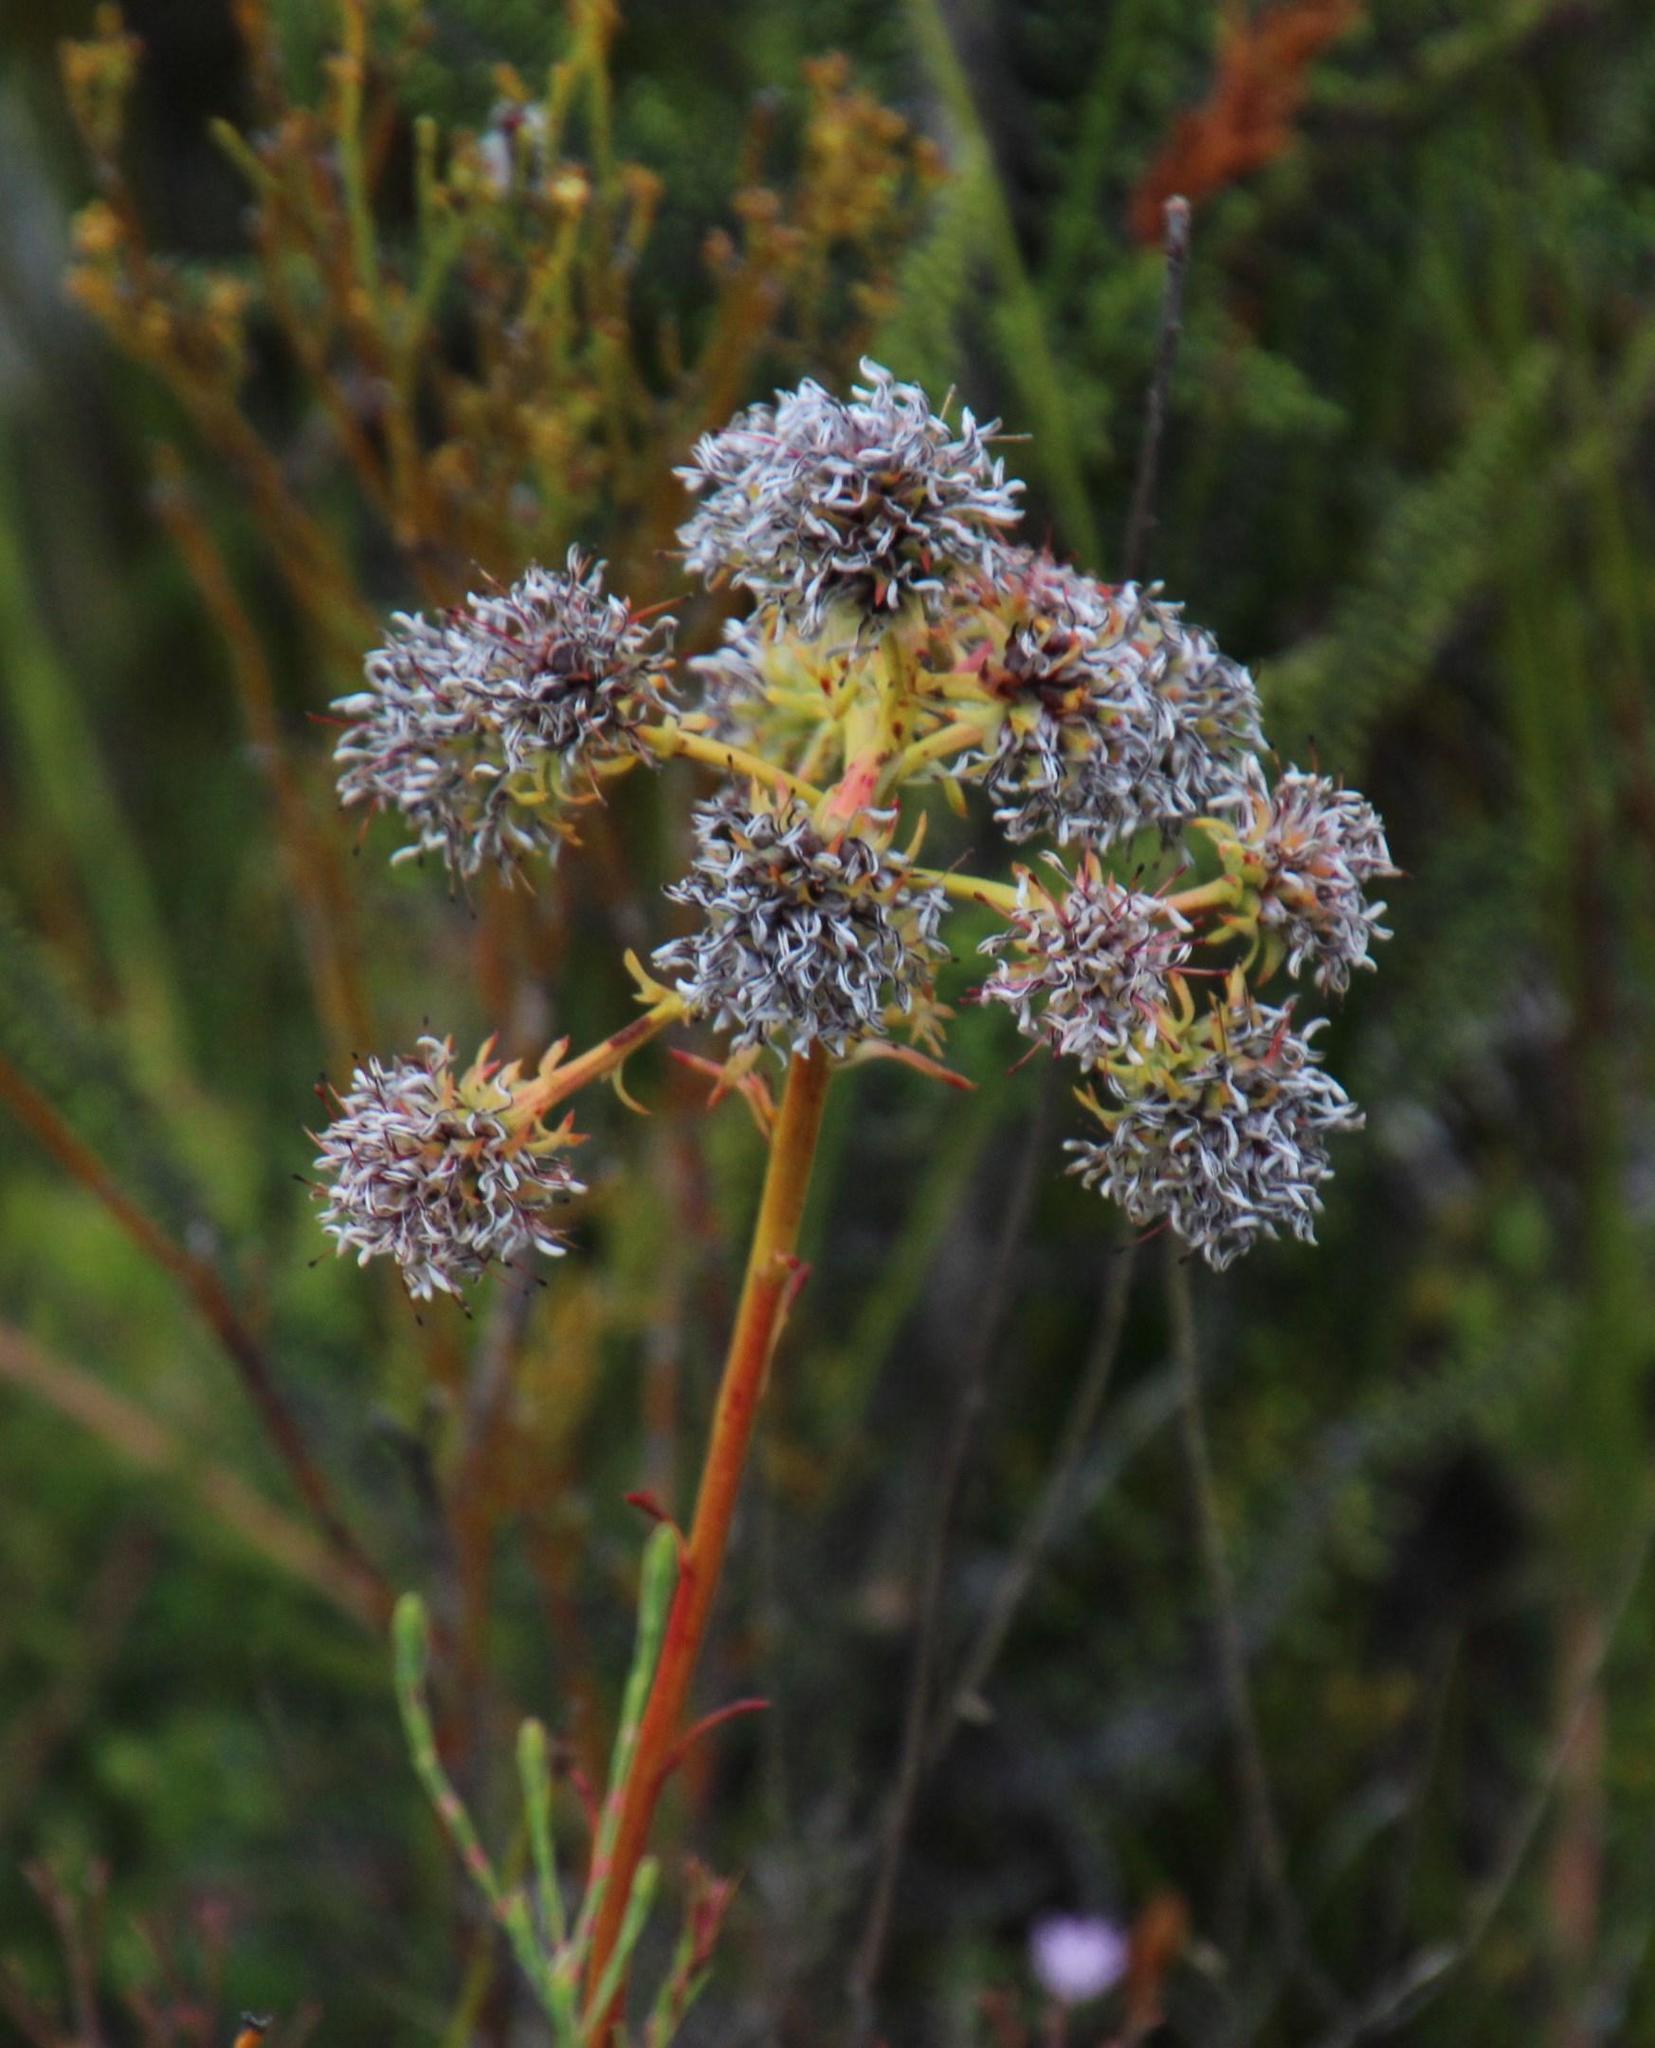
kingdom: Plantae
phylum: Tracheophyta
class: Magnoliopsida
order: Proteales
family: Proteaceae
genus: Serruria
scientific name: Serruria elongata
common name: Long-stalk spiderhead
